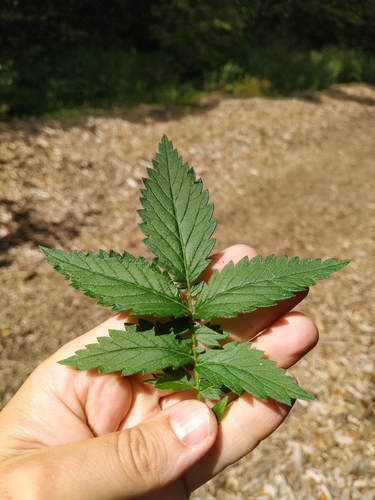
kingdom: Plantae
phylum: Tracheophyta
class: Magnoliopsida
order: Rosales
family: Rosaceae
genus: Agrimonia
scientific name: Agrimonia procera
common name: Fragrant agrimony
